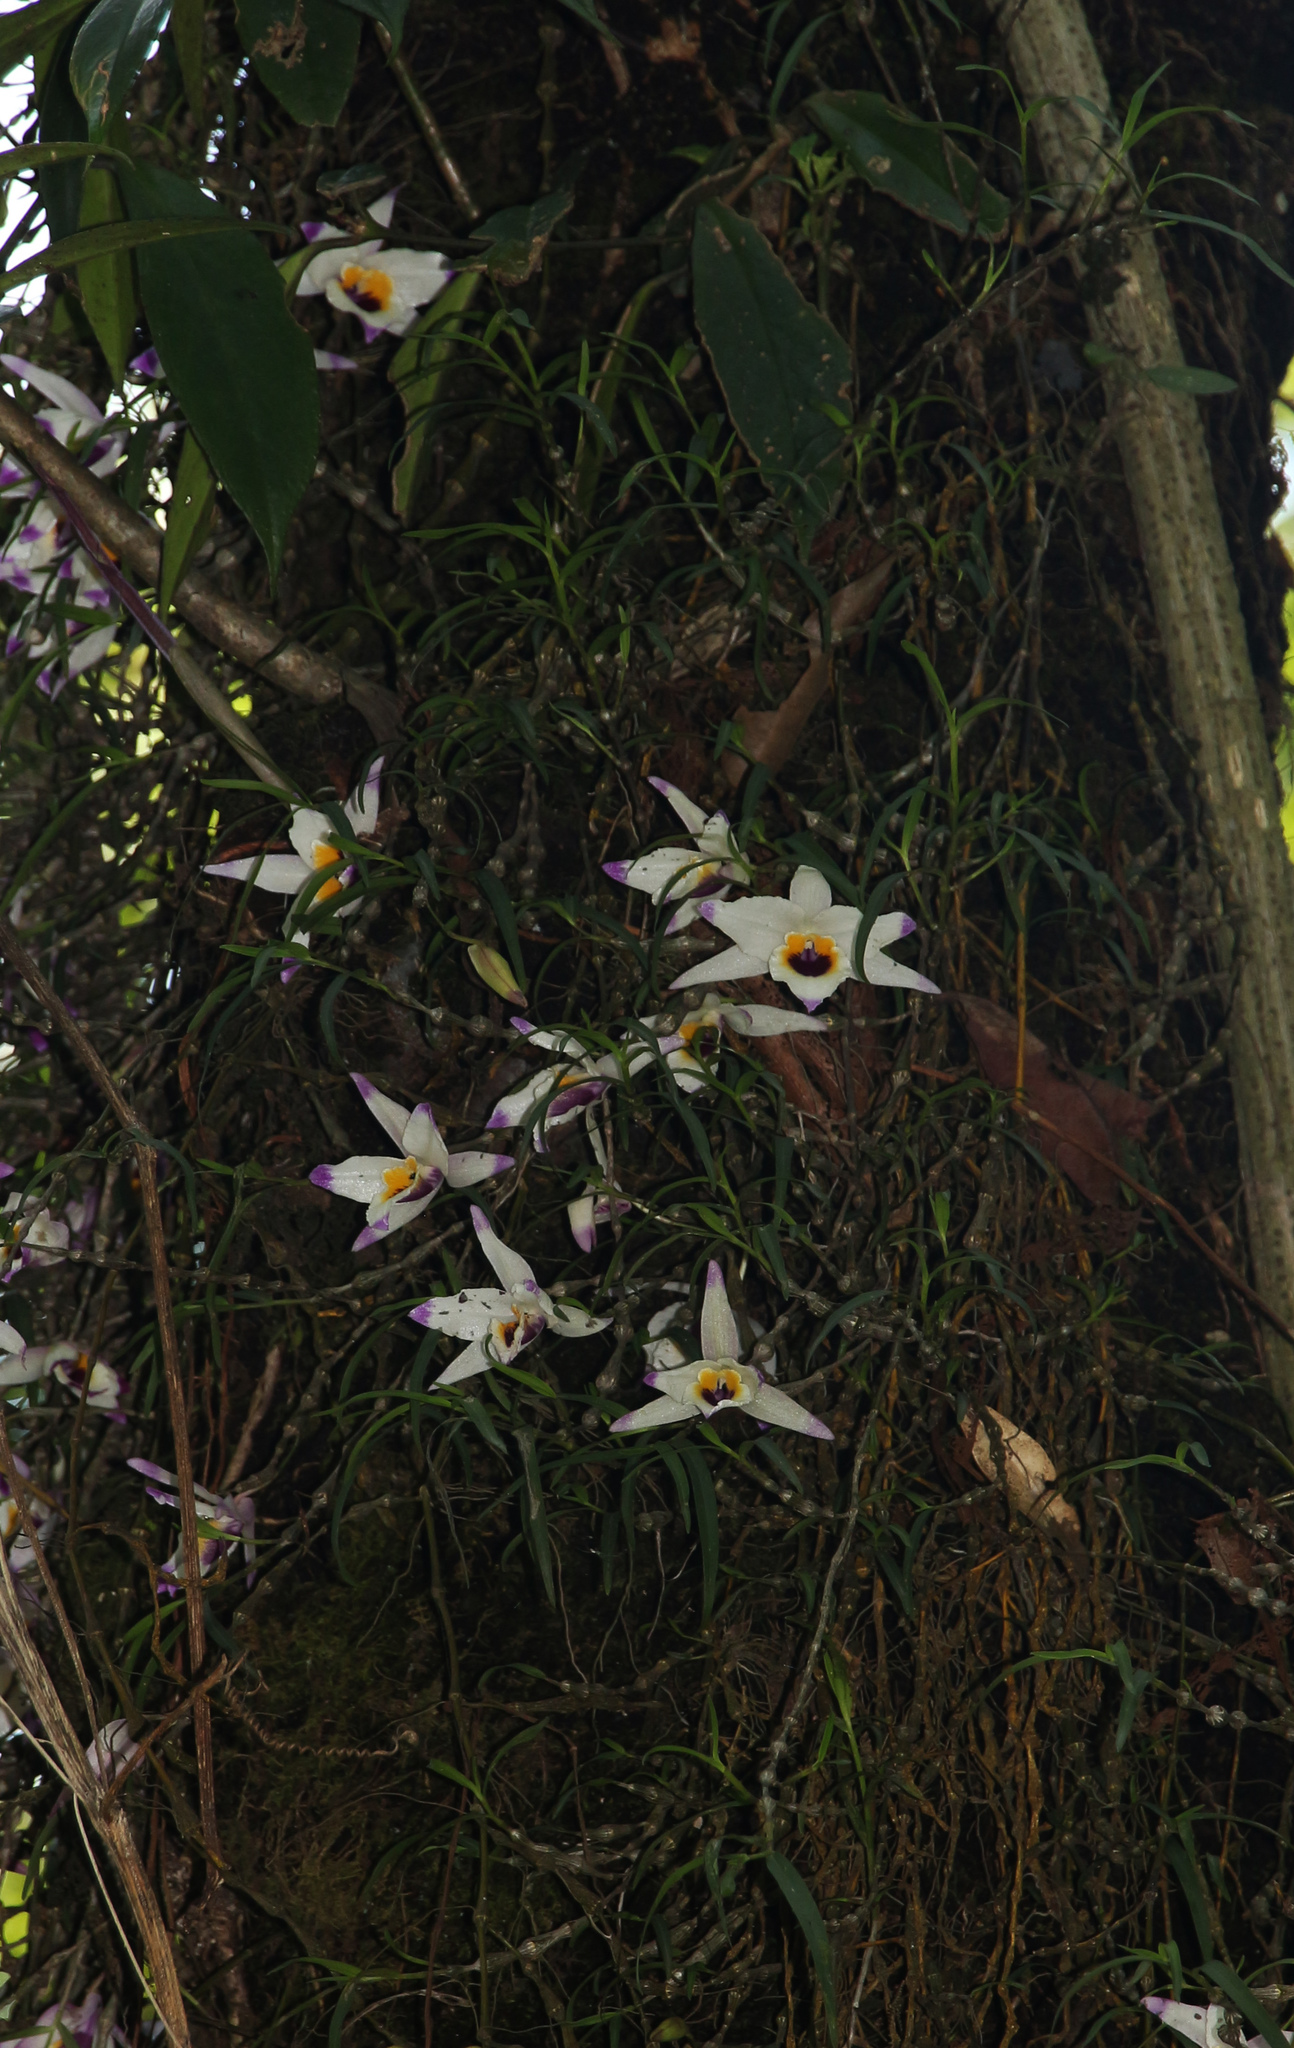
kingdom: Plantae
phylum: Tracheophyta
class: Liliopsida
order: Asparagales
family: Orchidaceae
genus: Dendrobium
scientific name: Dendrobium falconeri
